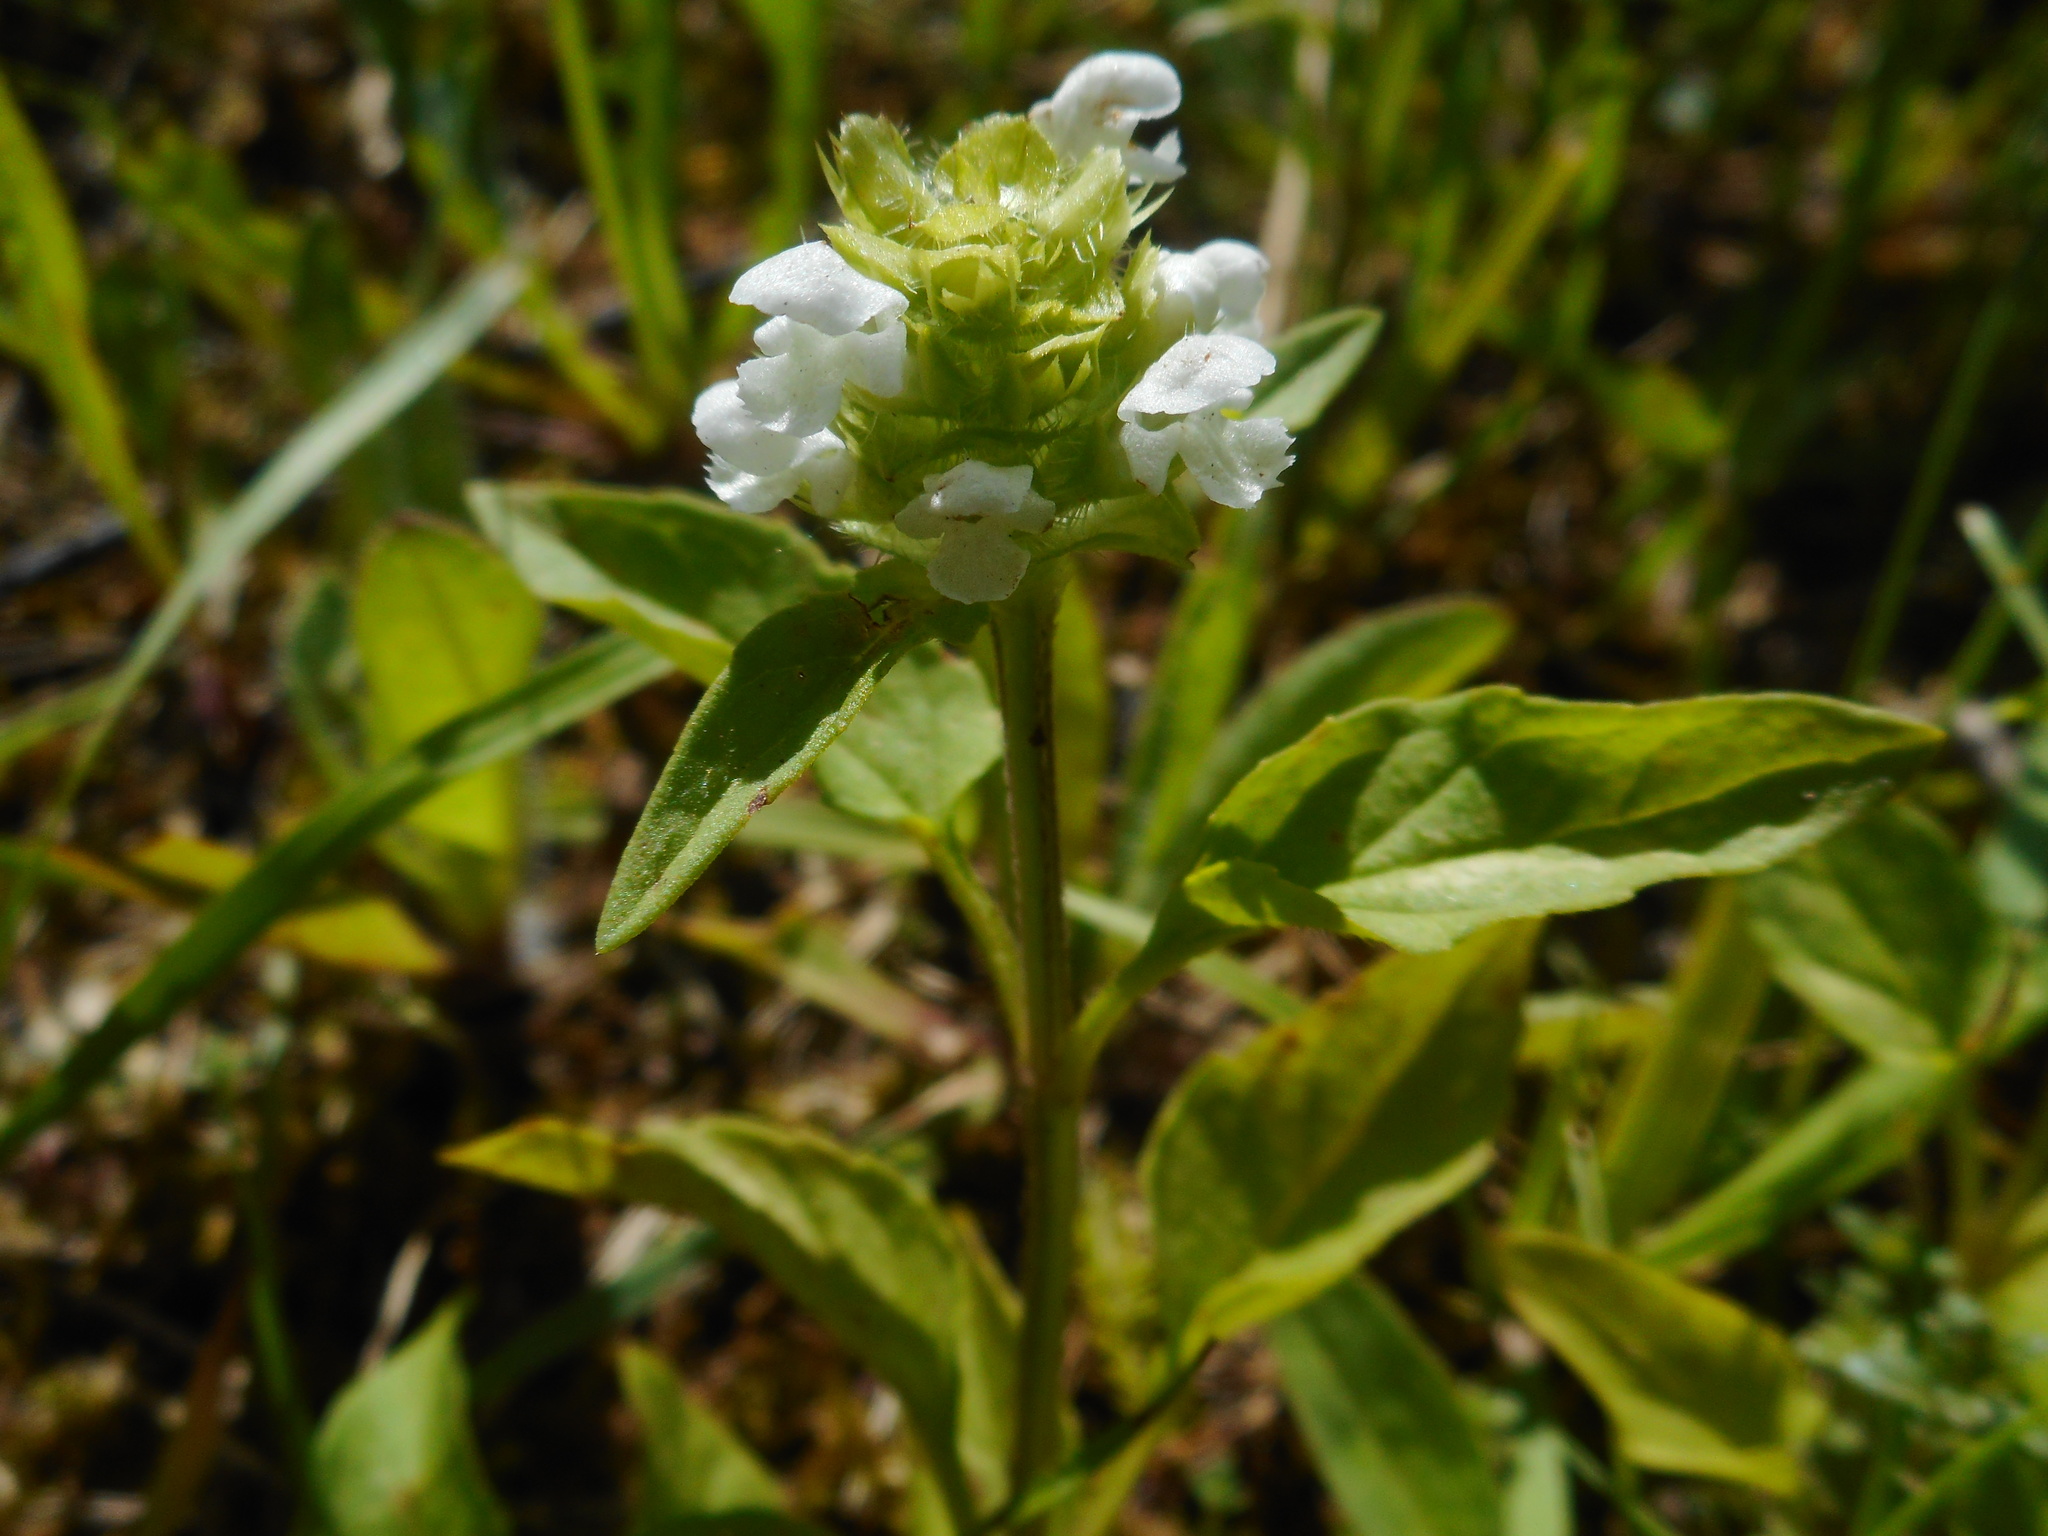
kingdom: Plantae
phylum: Tracheophyta
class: Magnoliopsida
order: Lamiales
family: Lamiaceae
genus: Prunella
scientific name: Prunella vulgaris
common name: Heal-all
